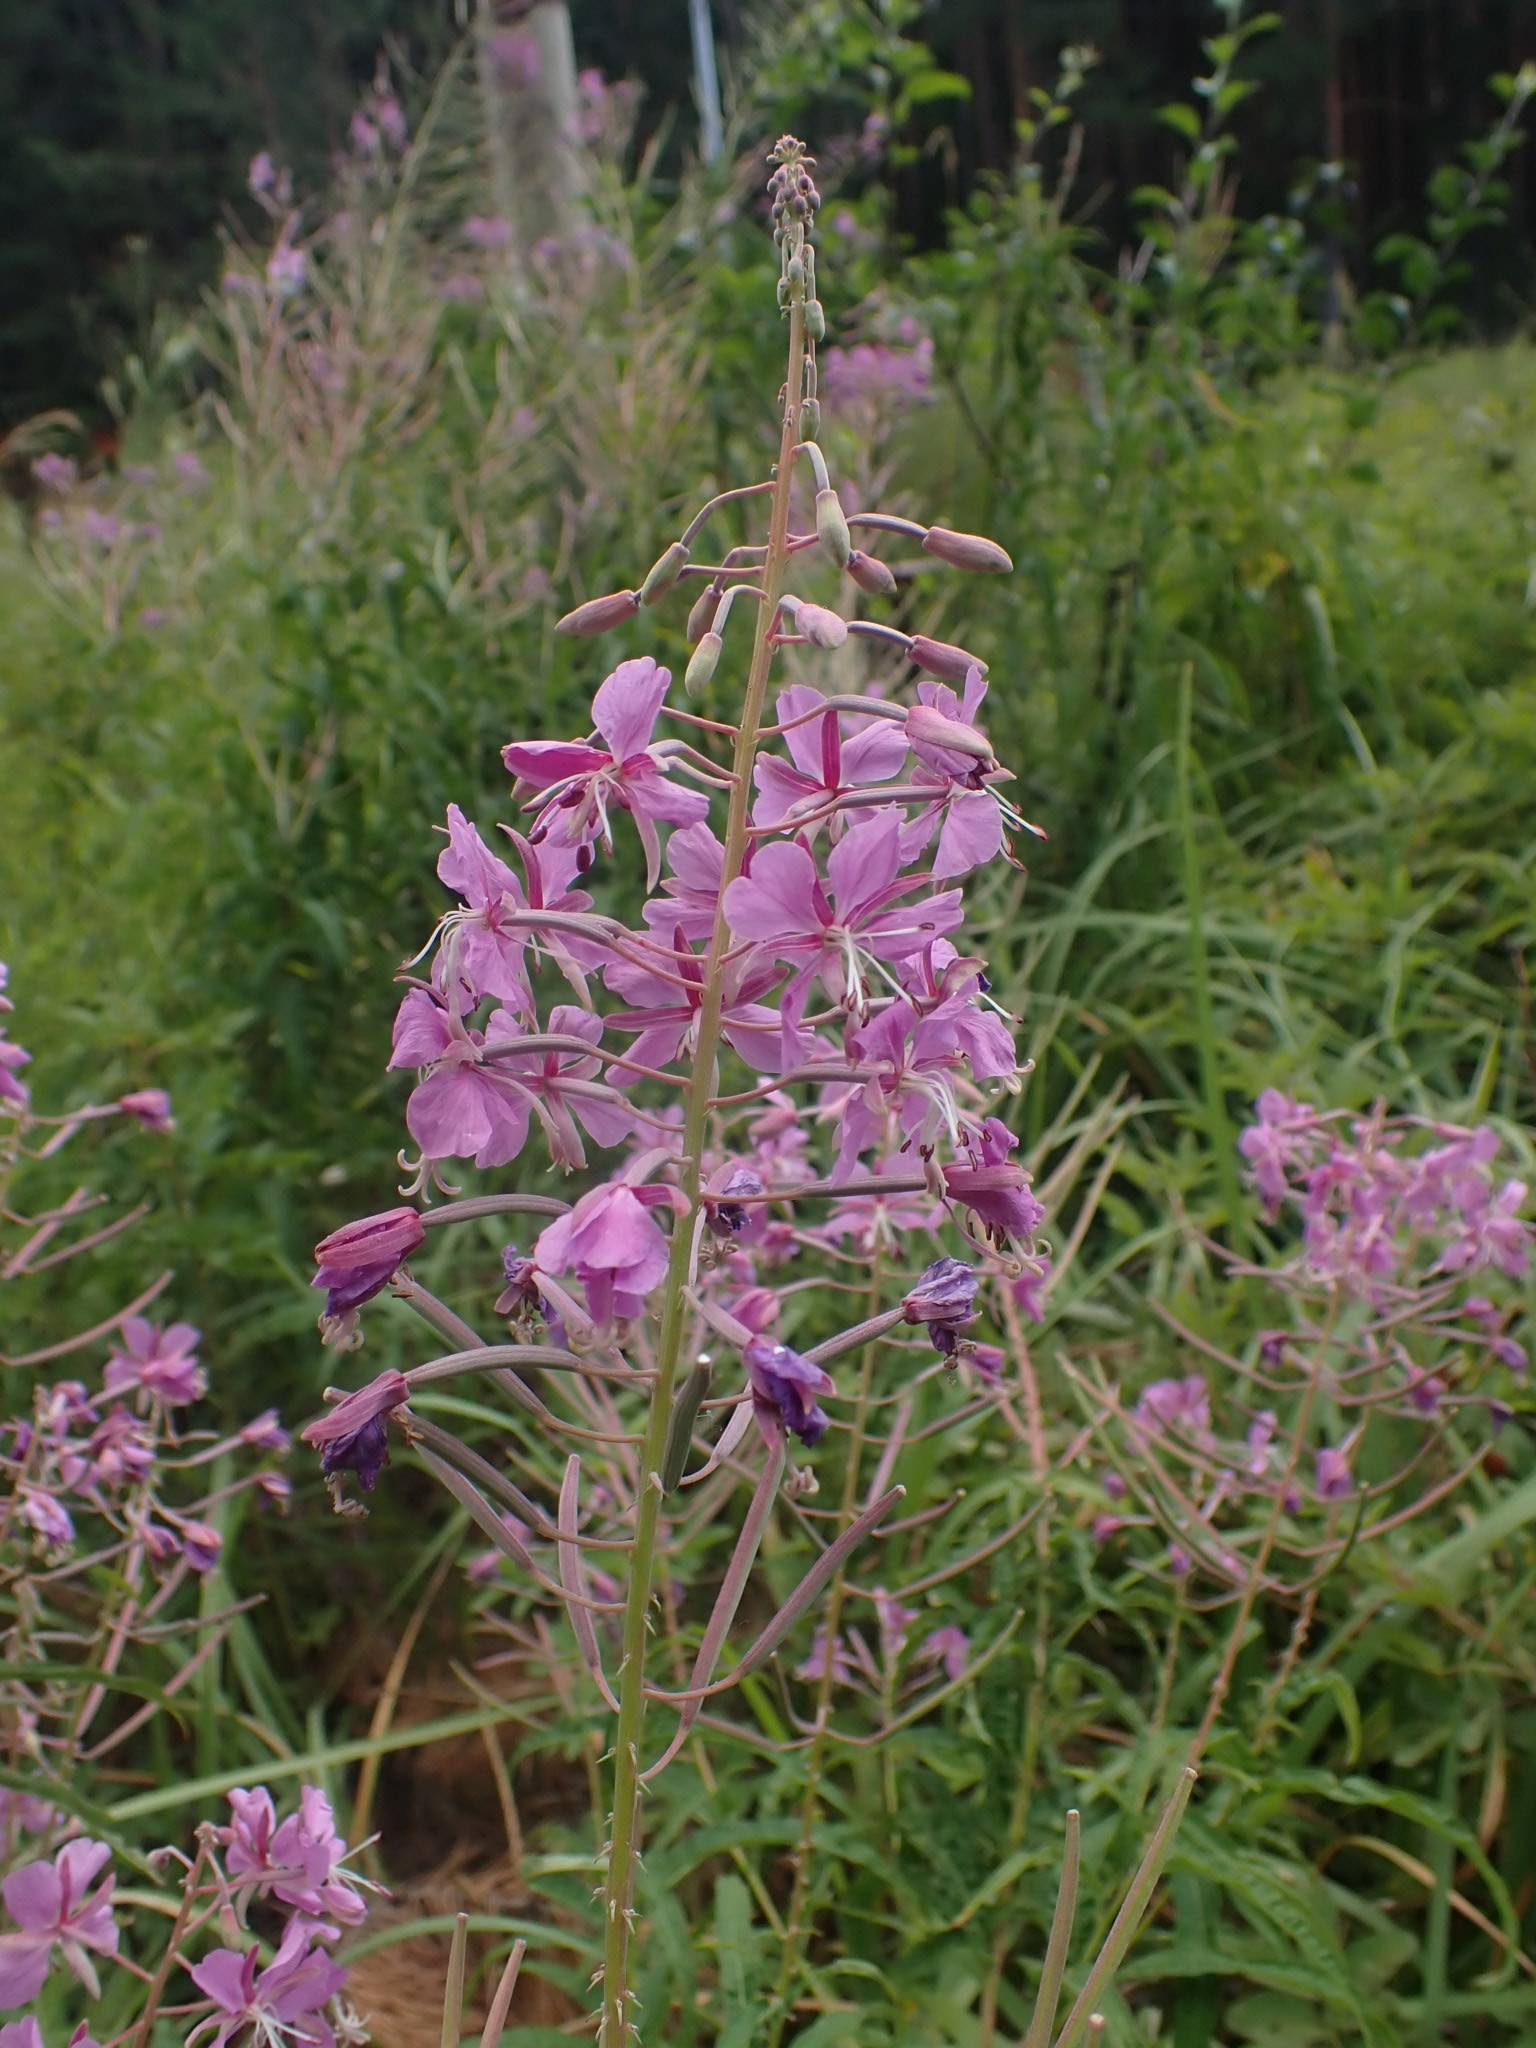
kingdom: Plantae
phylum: Tracheophyta
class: Magnoliopsida
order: Myrtales
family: Onagraceae
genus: Chamaenerion
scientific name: Chamaenerion angustifolium
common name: Fireweed
